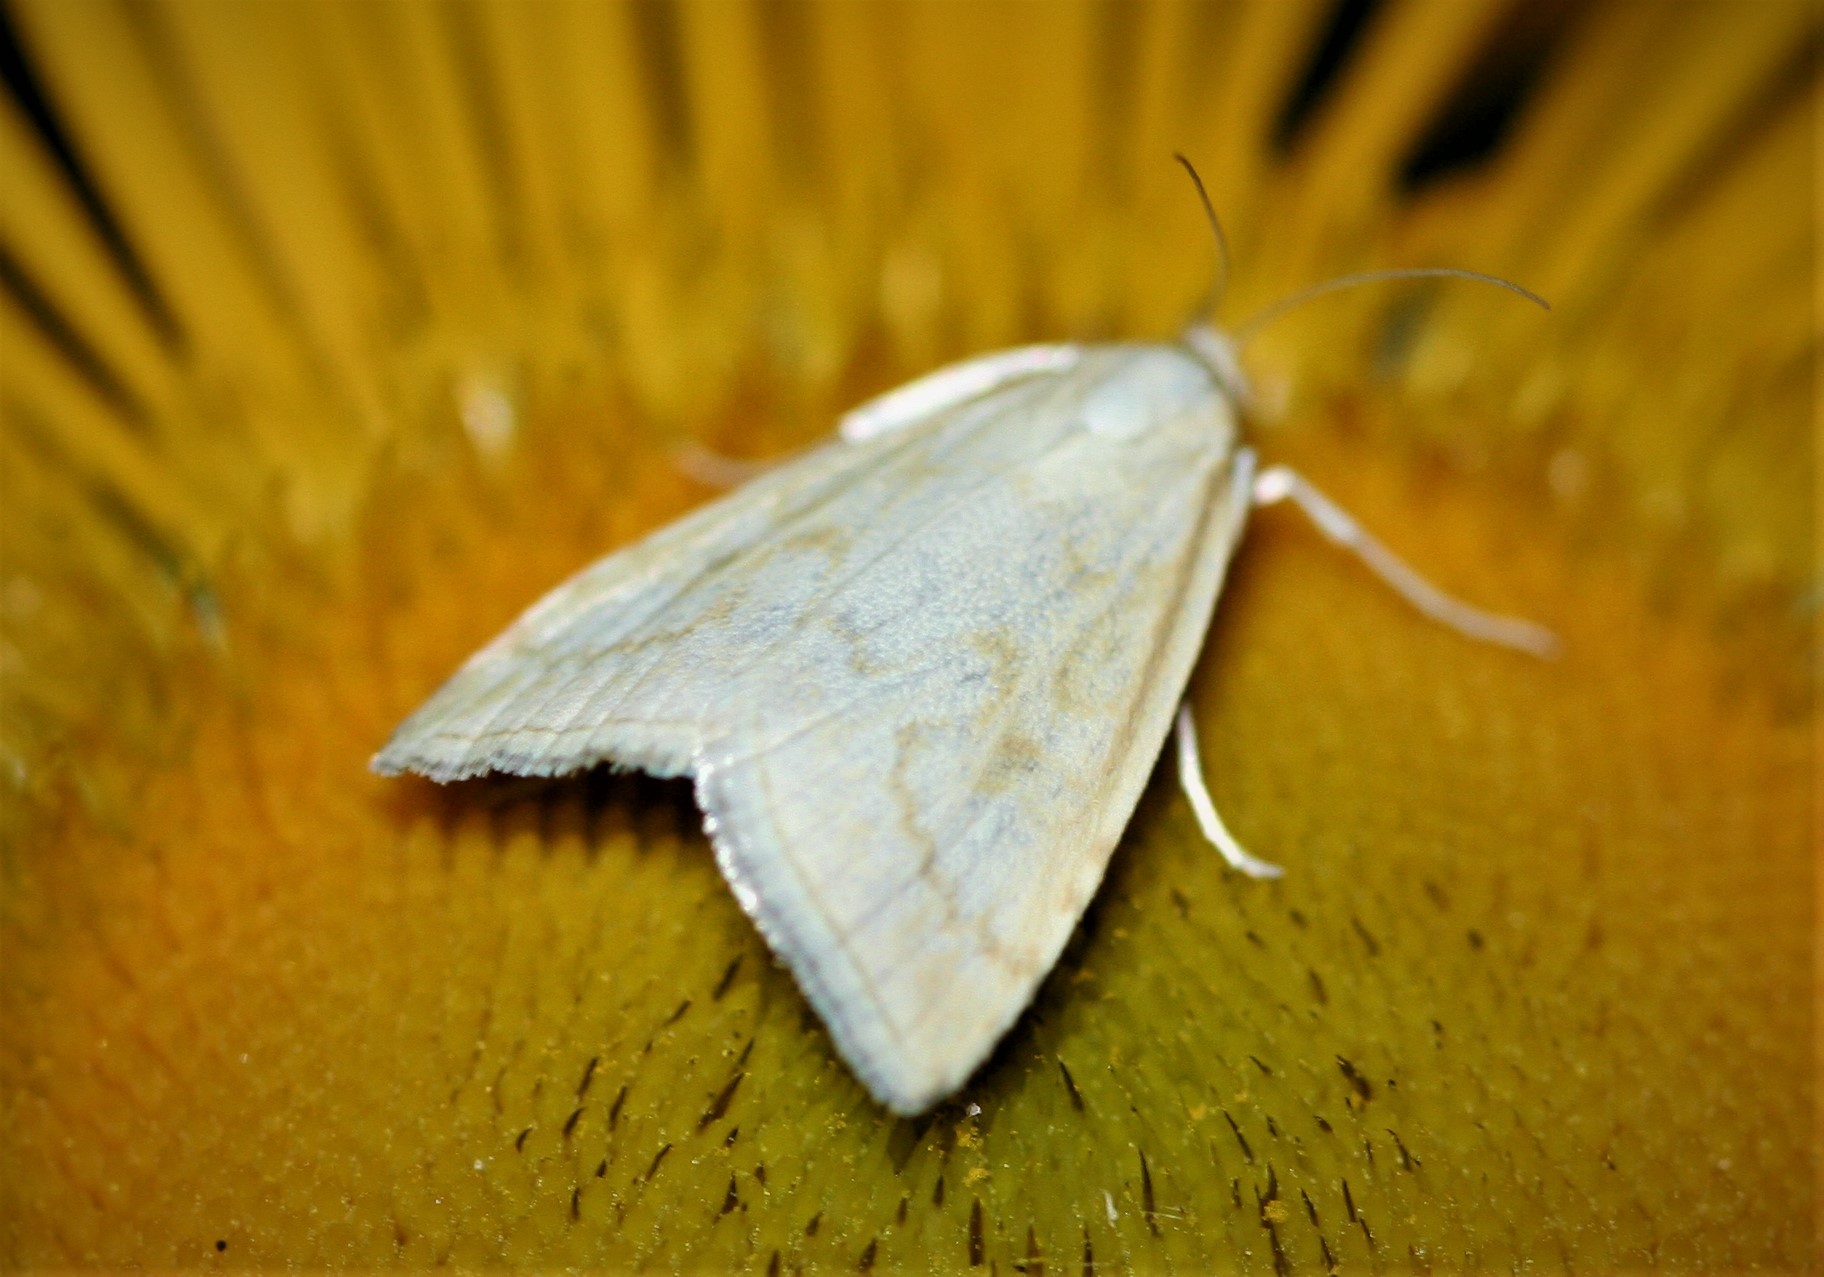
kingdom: Animalia
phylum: Arthropoda
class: Insecta
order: Lepidoptera
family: Crambidae
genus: Udea
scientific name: Udea lutealis
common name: Pale straw pearl
